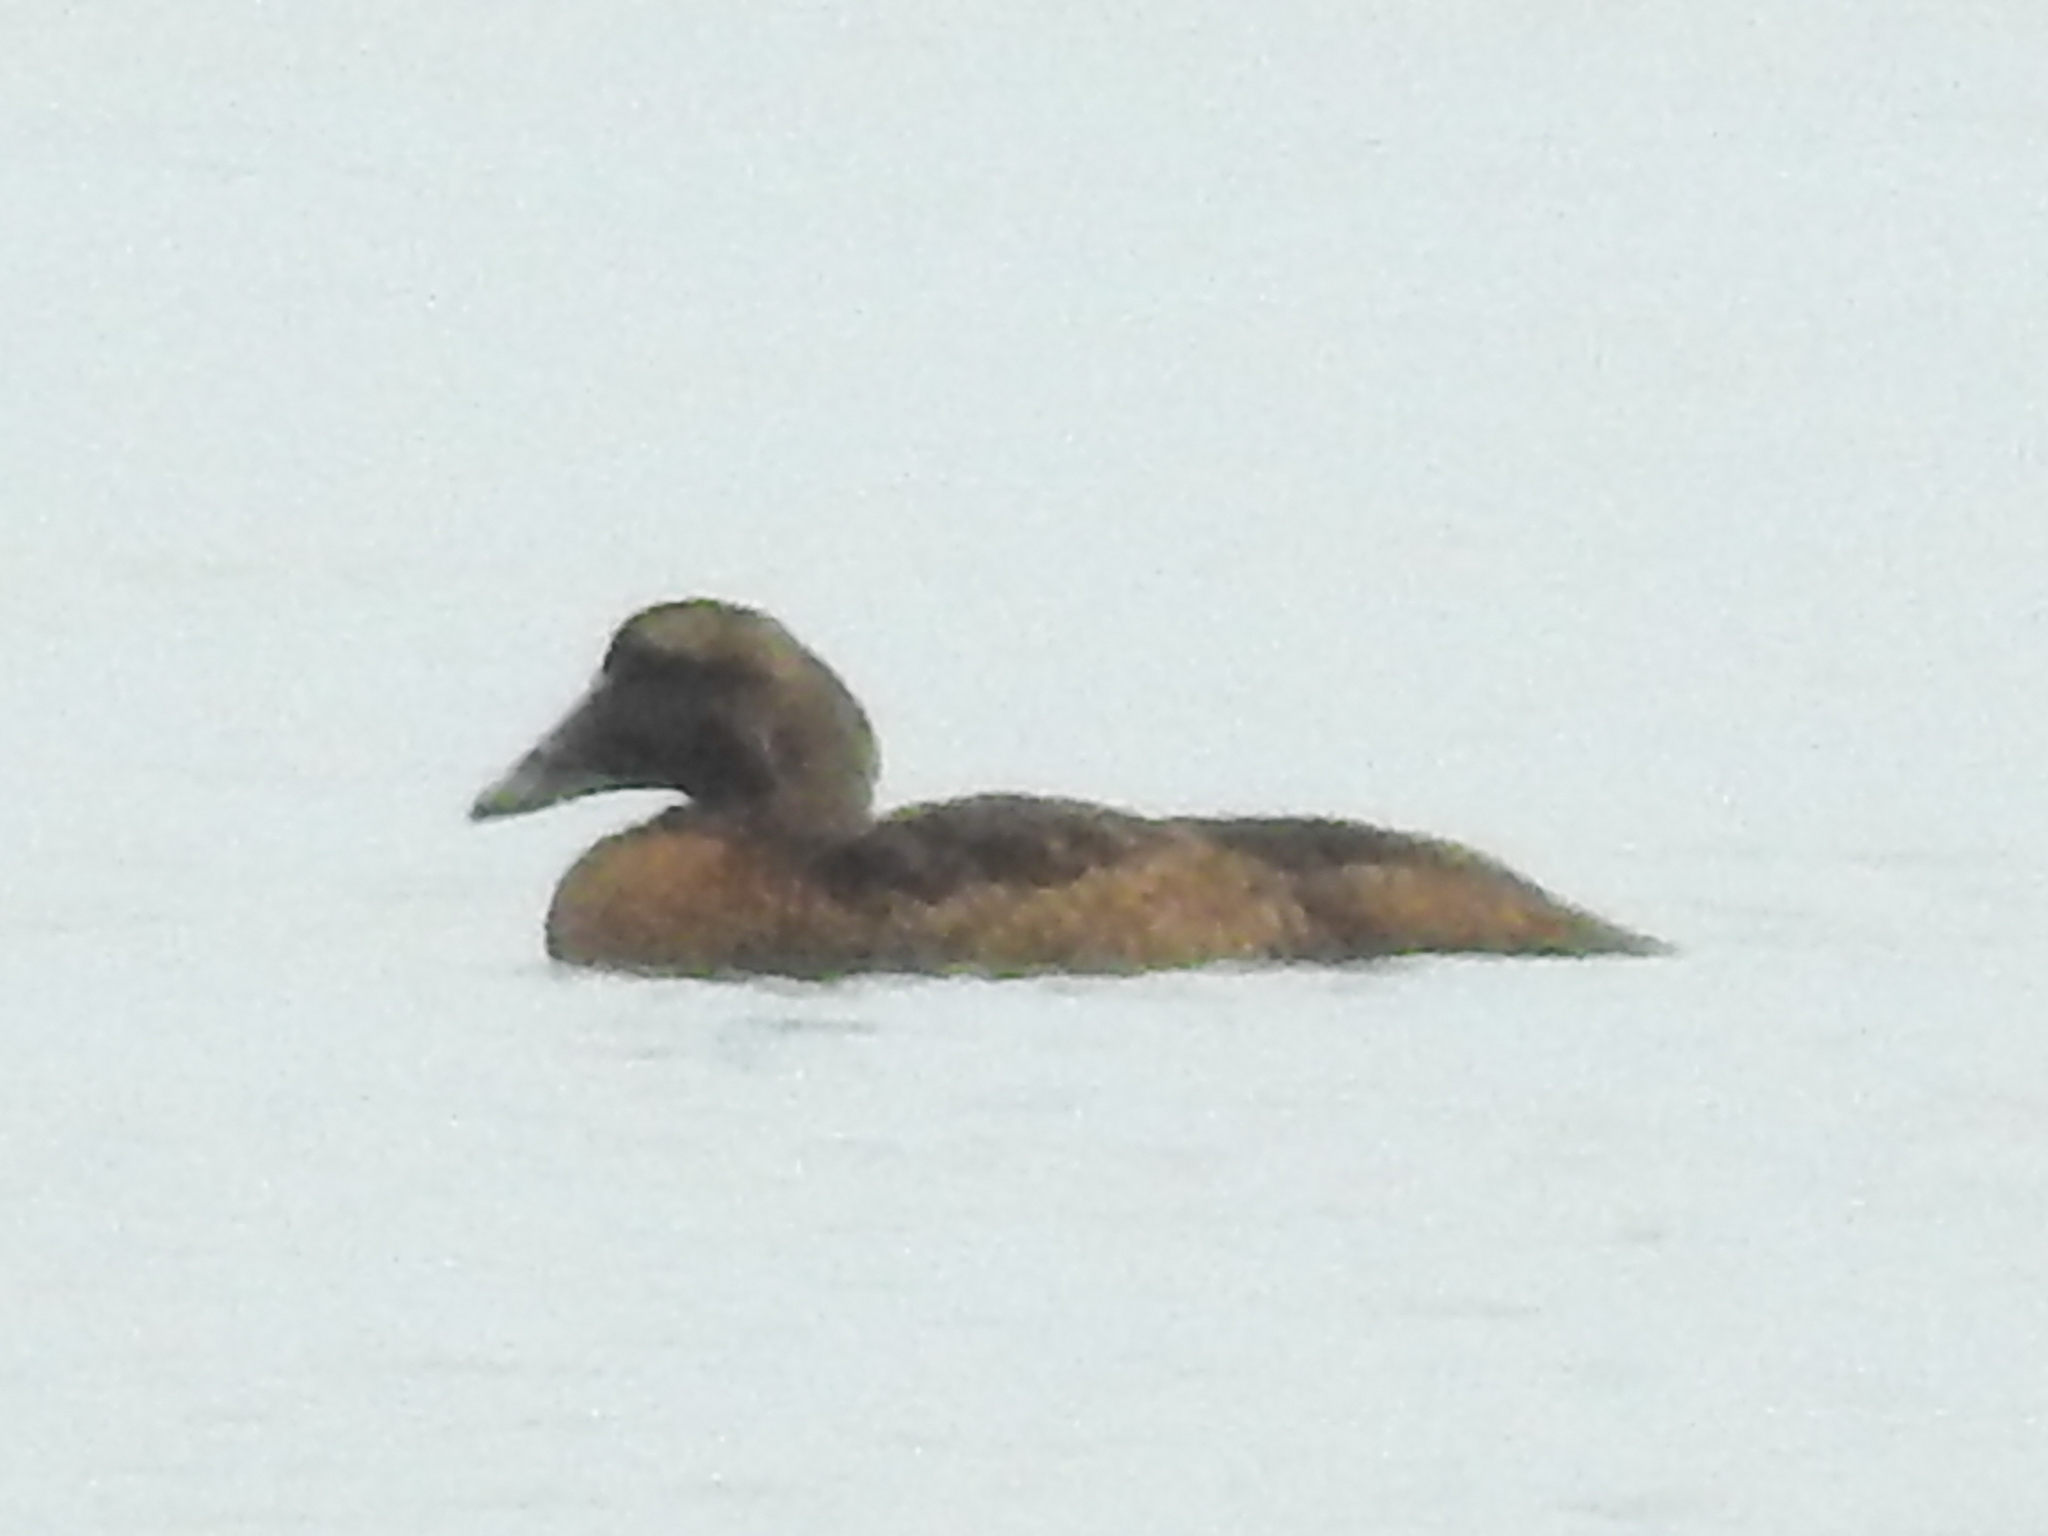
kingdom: Animalia
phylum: Chordata
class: Aves
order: Anseriformes
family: Anatidae
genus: Somateria
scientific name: Somateria mollissima
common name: Common eider
